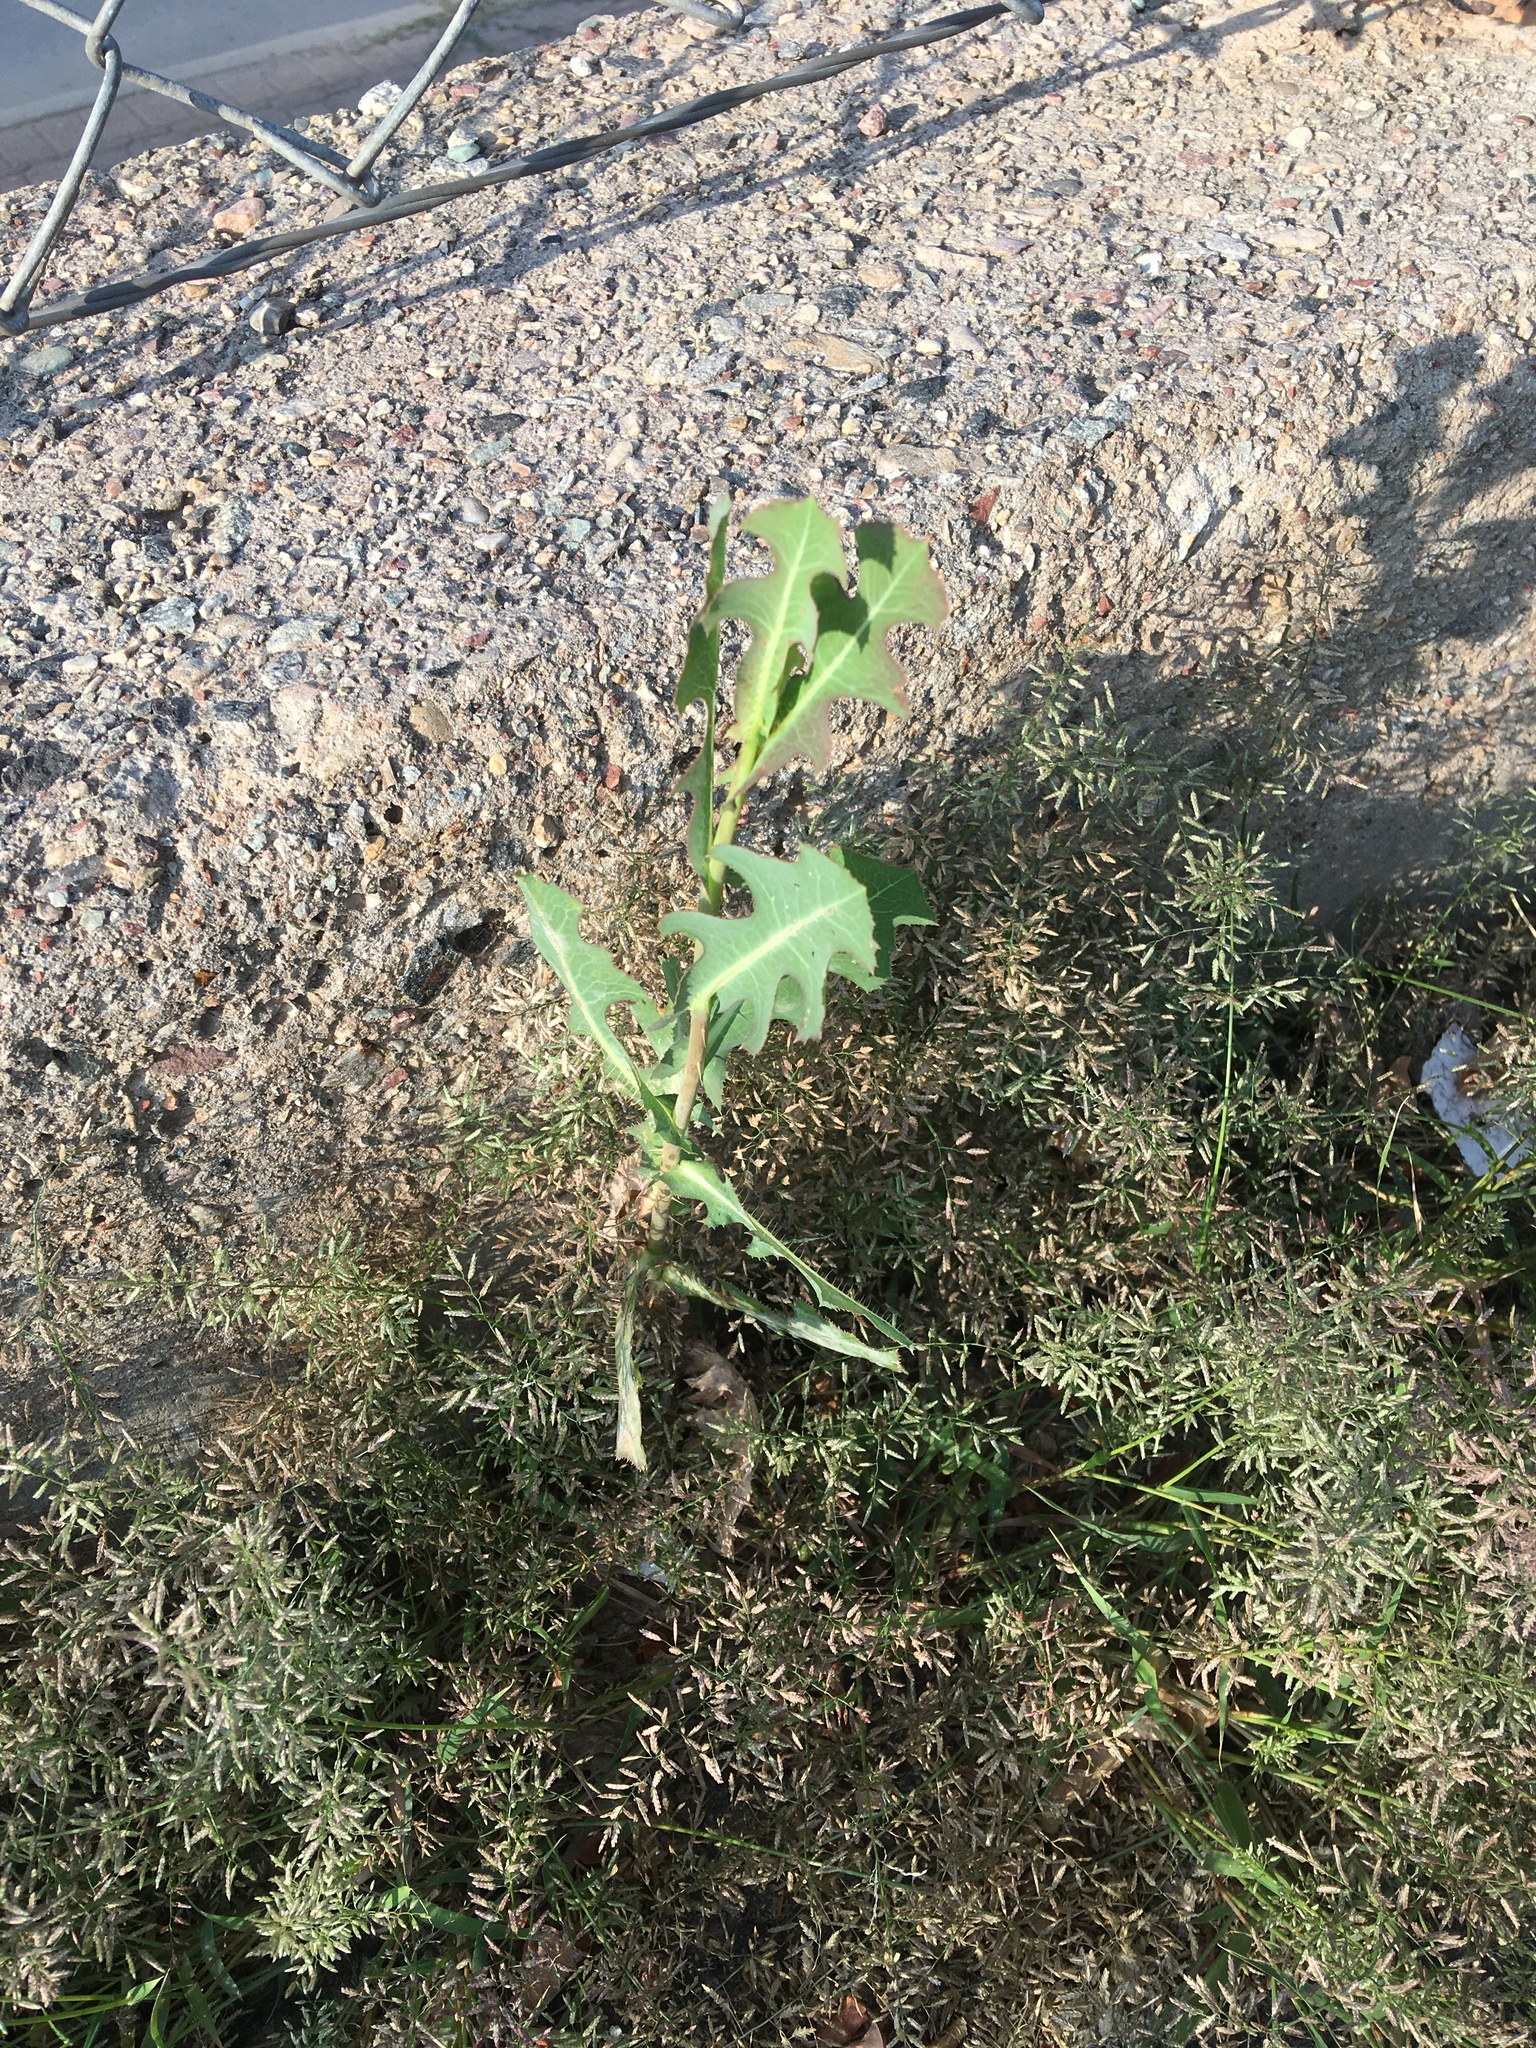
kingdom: Plantae
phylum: Tracheophyta
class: Magnoliopsida
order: Asterales
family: Asteraceae
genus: Lactuca
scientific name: Lactuca serriola
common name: Prickly lettuce
